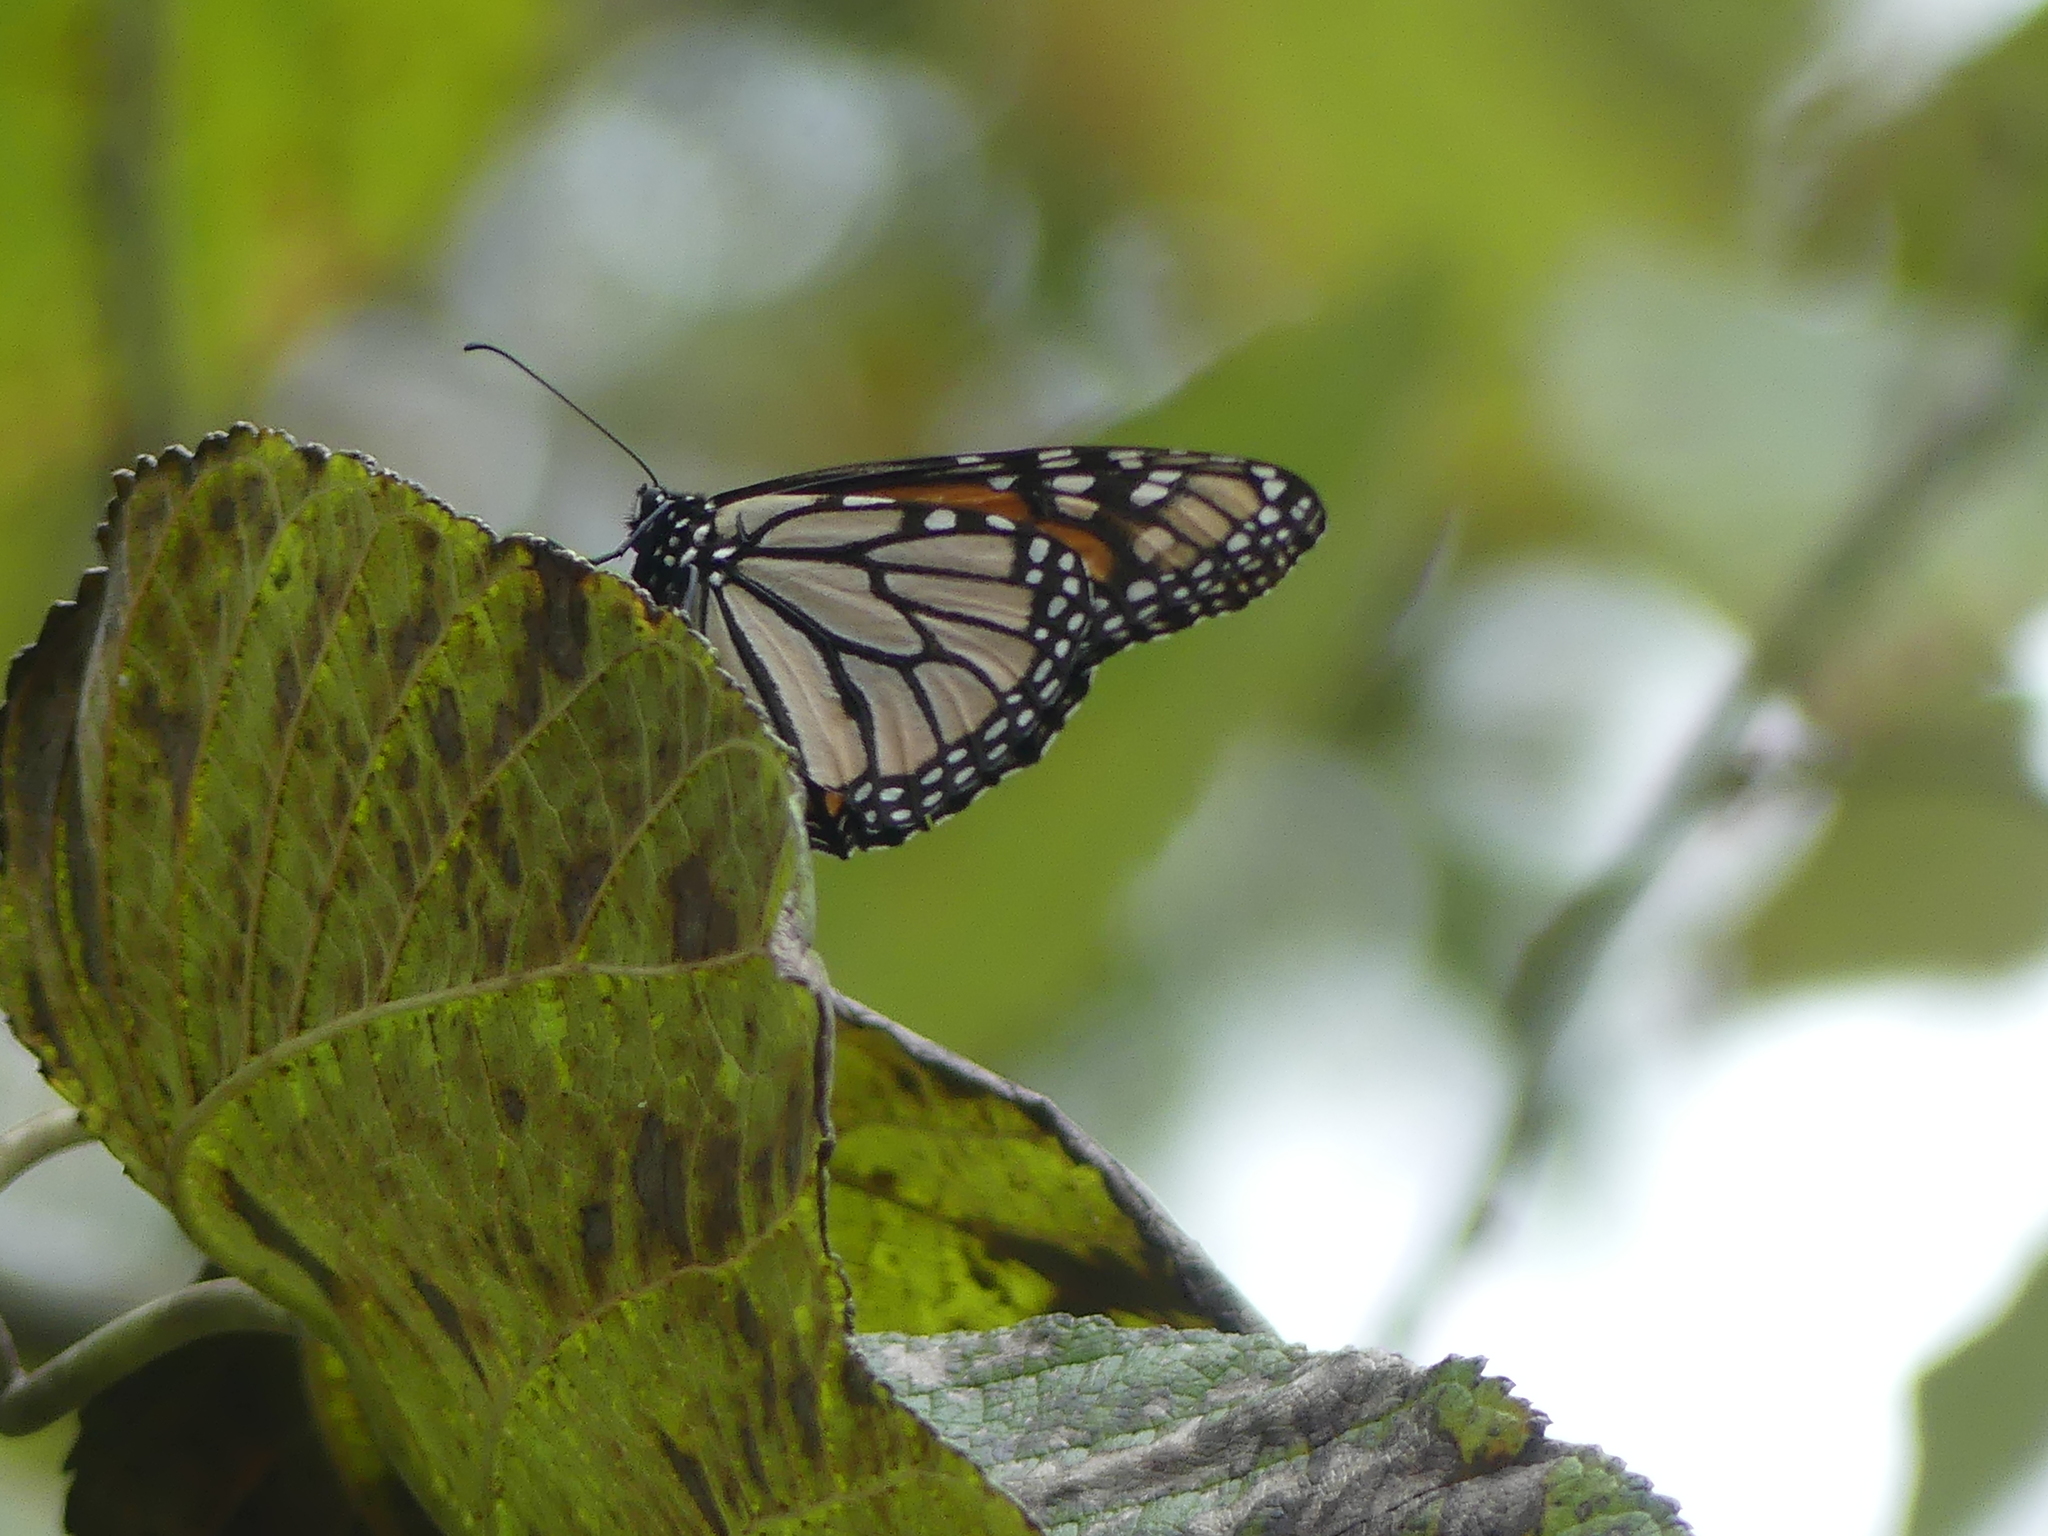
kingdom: Animalia
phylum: Arthropoda
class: Insecta
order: Lepidoptera
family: Nymphalidae
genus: Danaus
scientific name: Danaus plexippus
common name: Monarch
